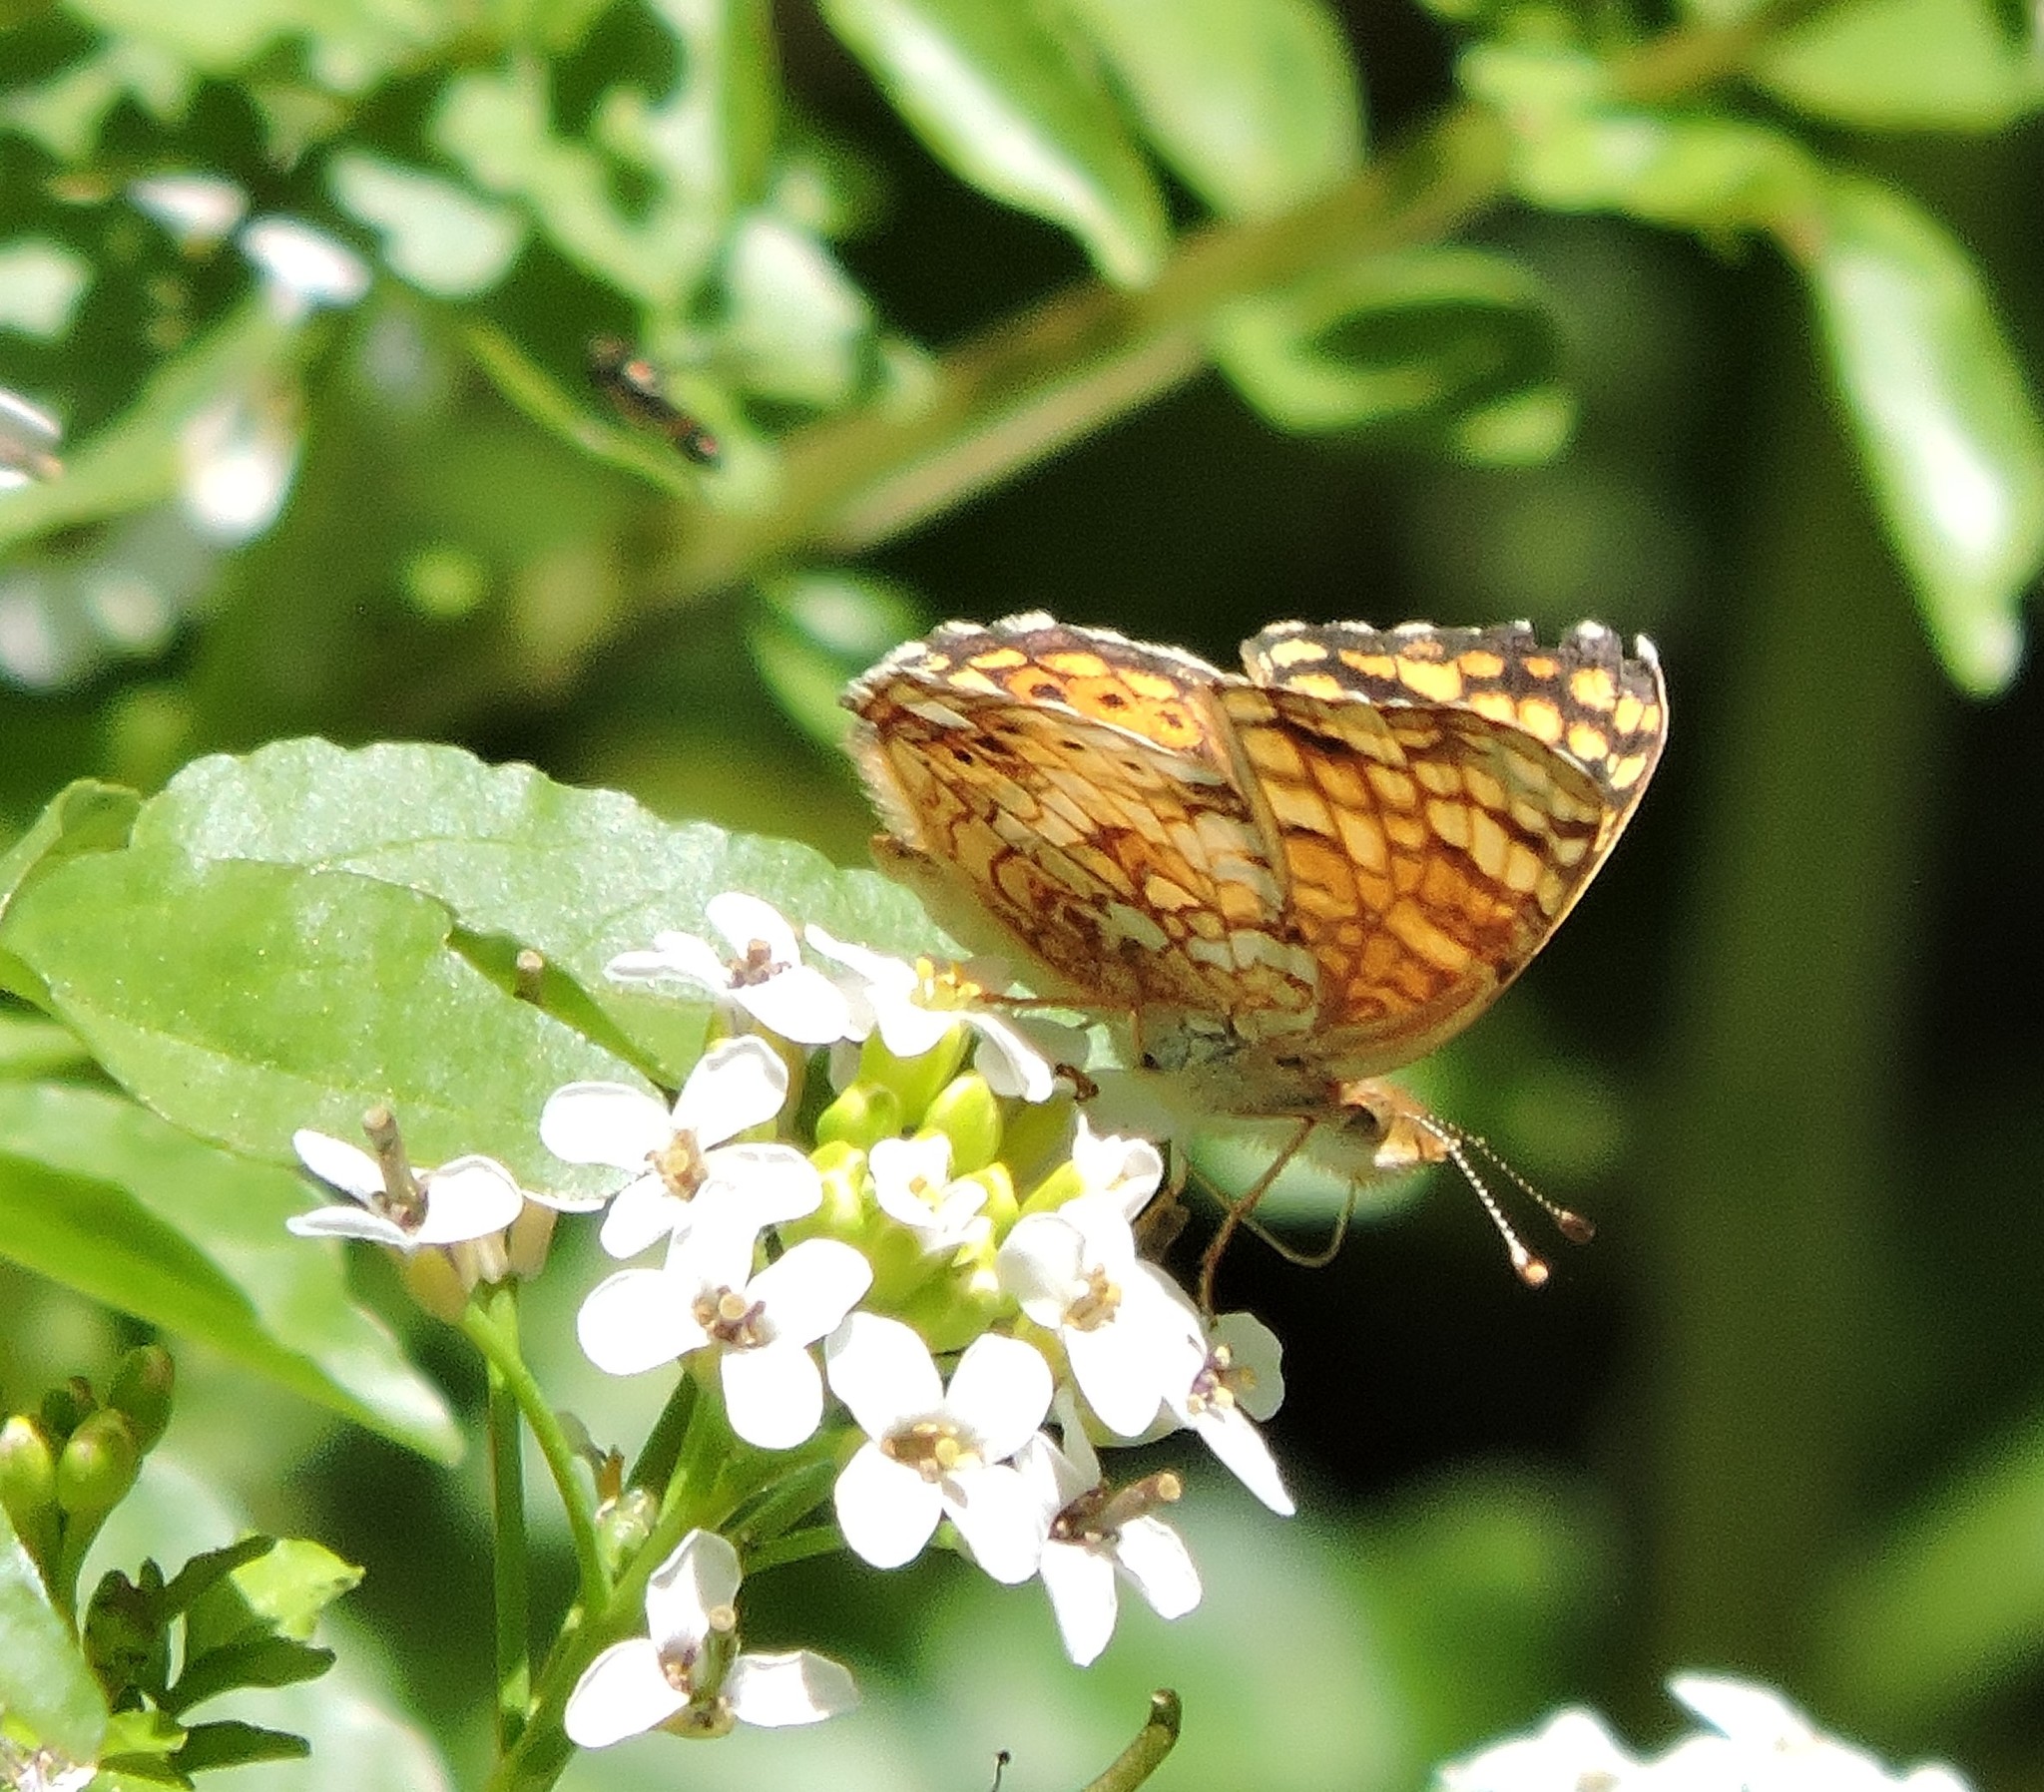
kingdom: Animalia
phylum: Arthropoda
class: Insecta
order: Lepidoptera
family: Nymphalidae
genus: Eresia
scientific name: Eresia aveyrona
